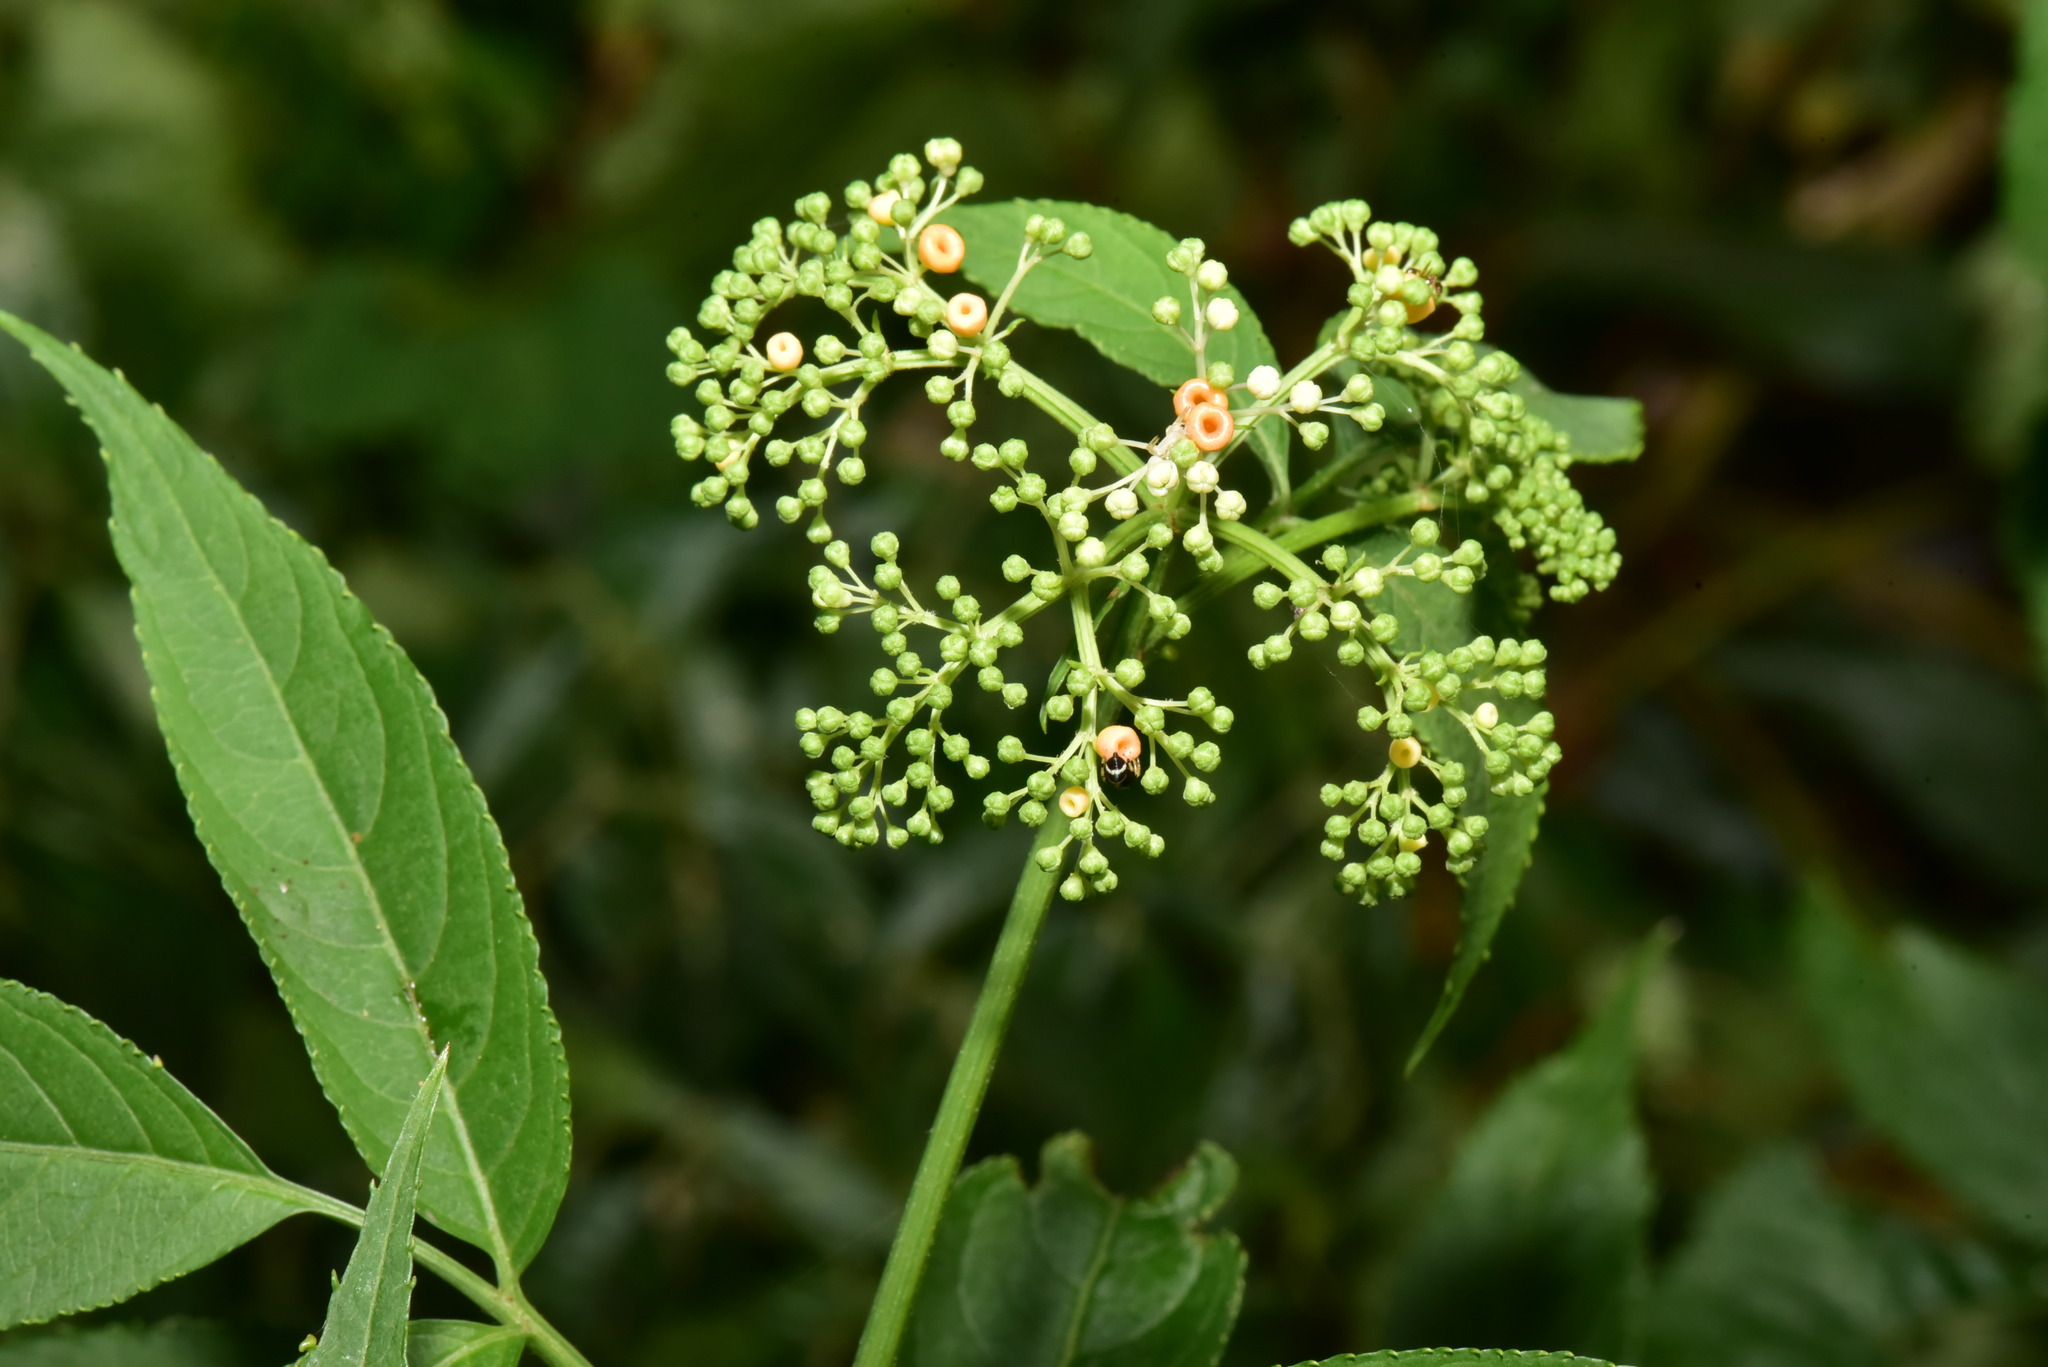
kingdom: Plantae
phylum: Tracheophyta
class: Magnoliopsida
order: Dipsacales
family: Viburnaceae
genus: Sambucus
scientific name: Sambucus javanica
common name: Chinese elder
